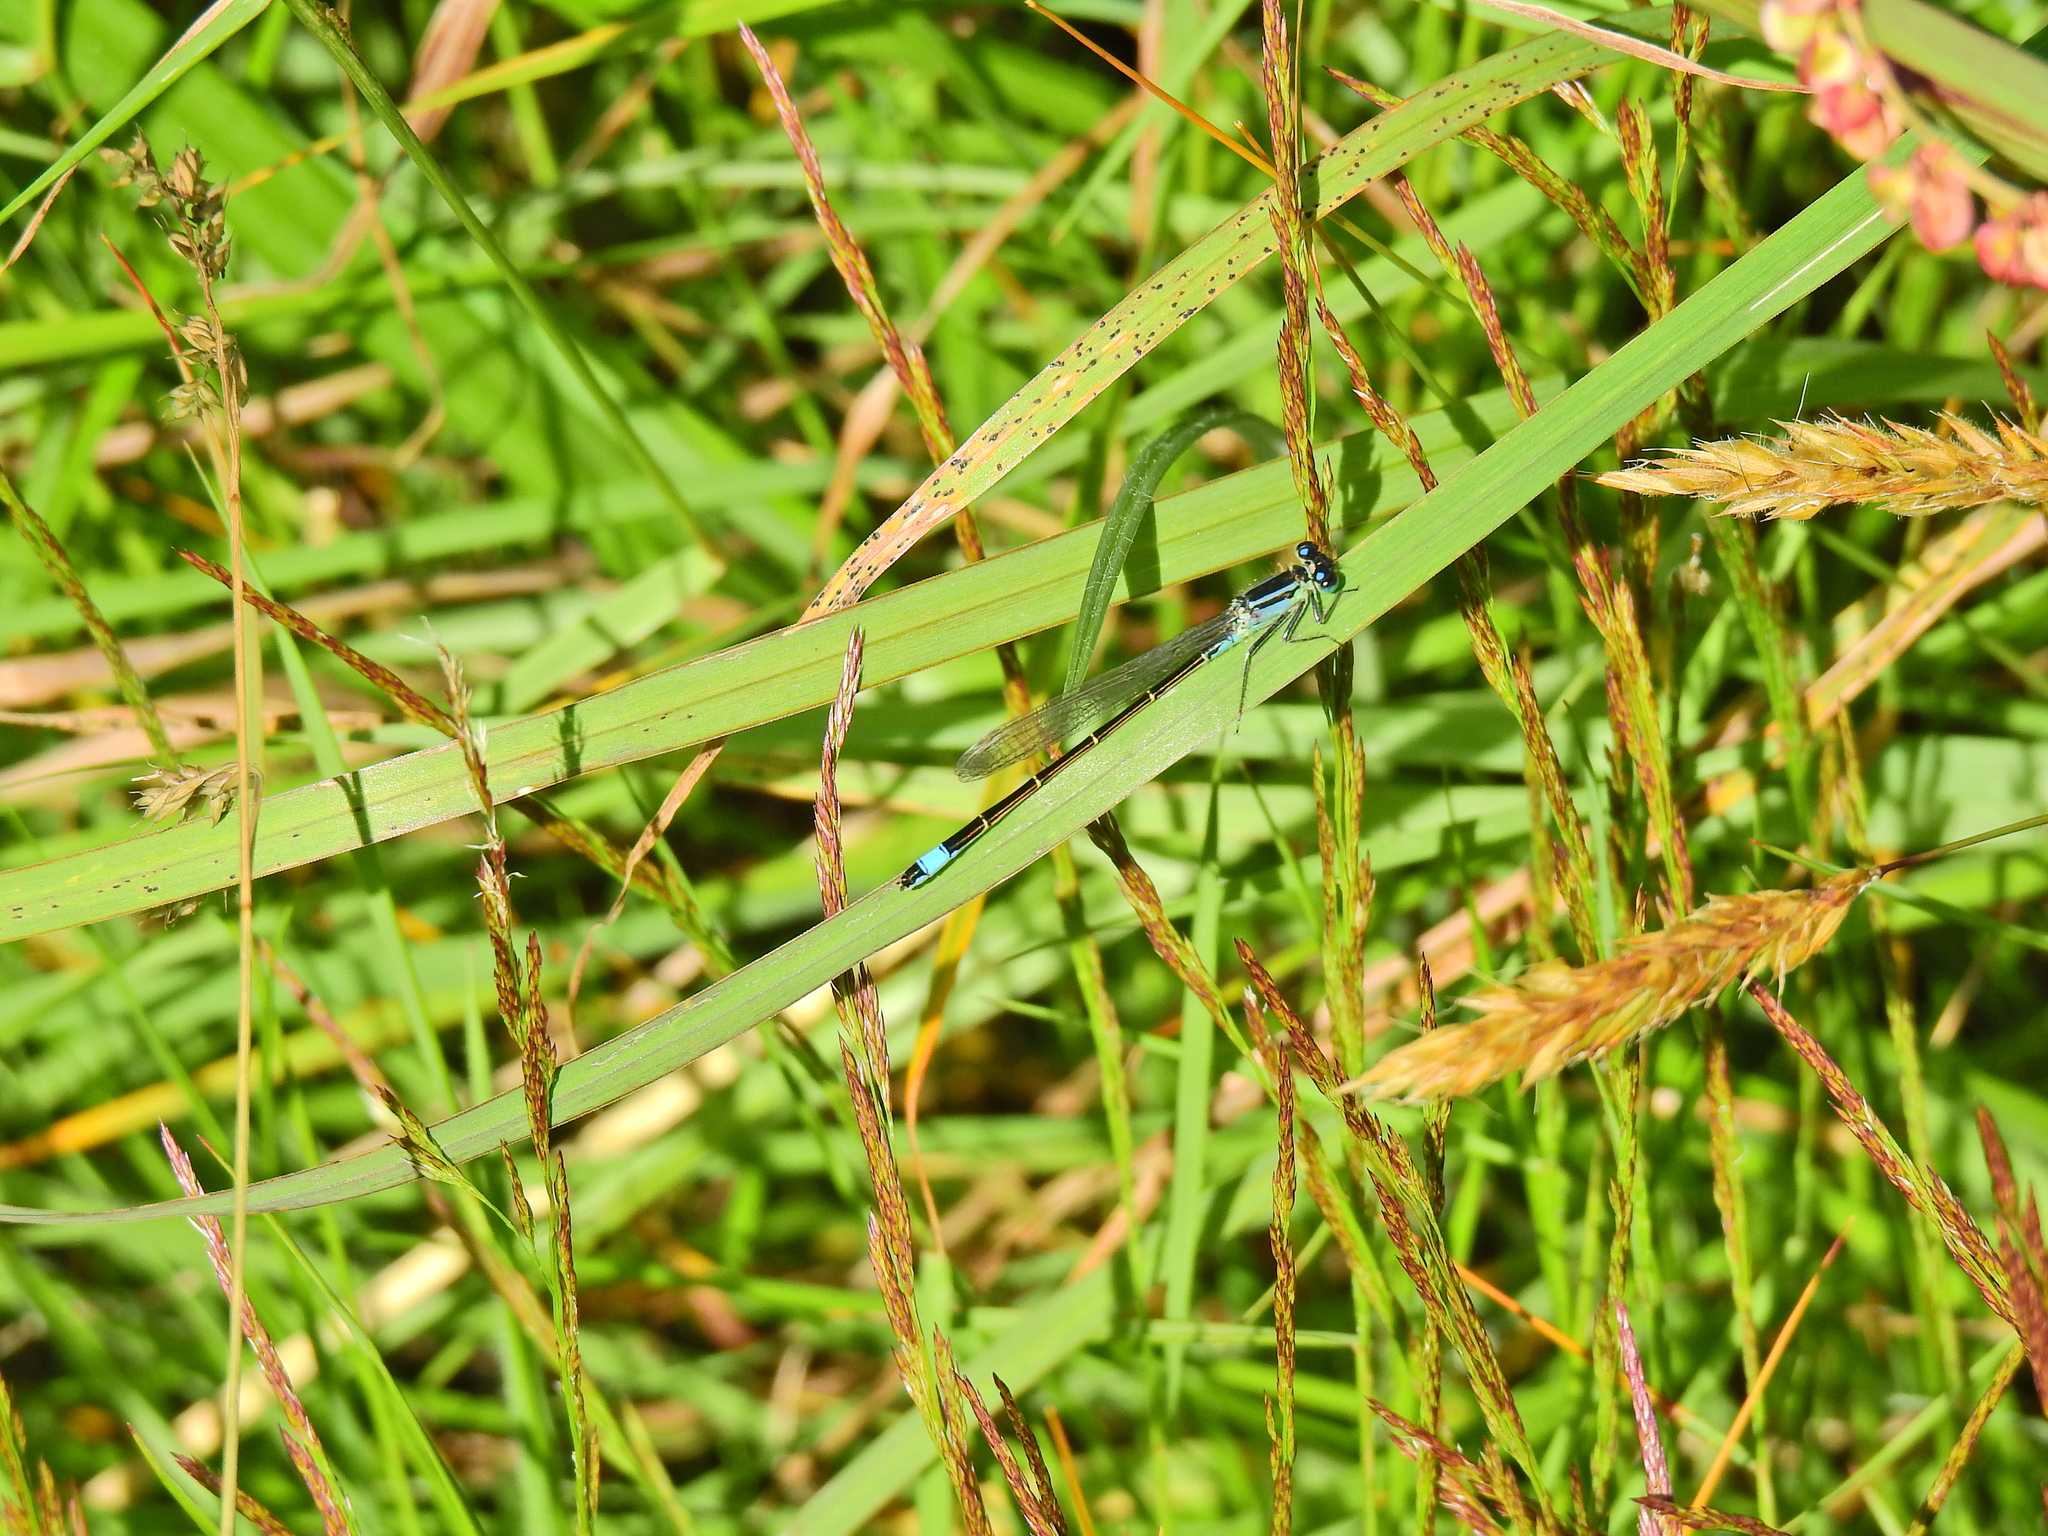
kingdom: Animalia
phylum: Arthropoda
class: Insecta
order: Odonata
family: Coenagrionidae
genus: Ischnura
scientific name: Ischnura elegans
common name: Blue-tailed damselfly
